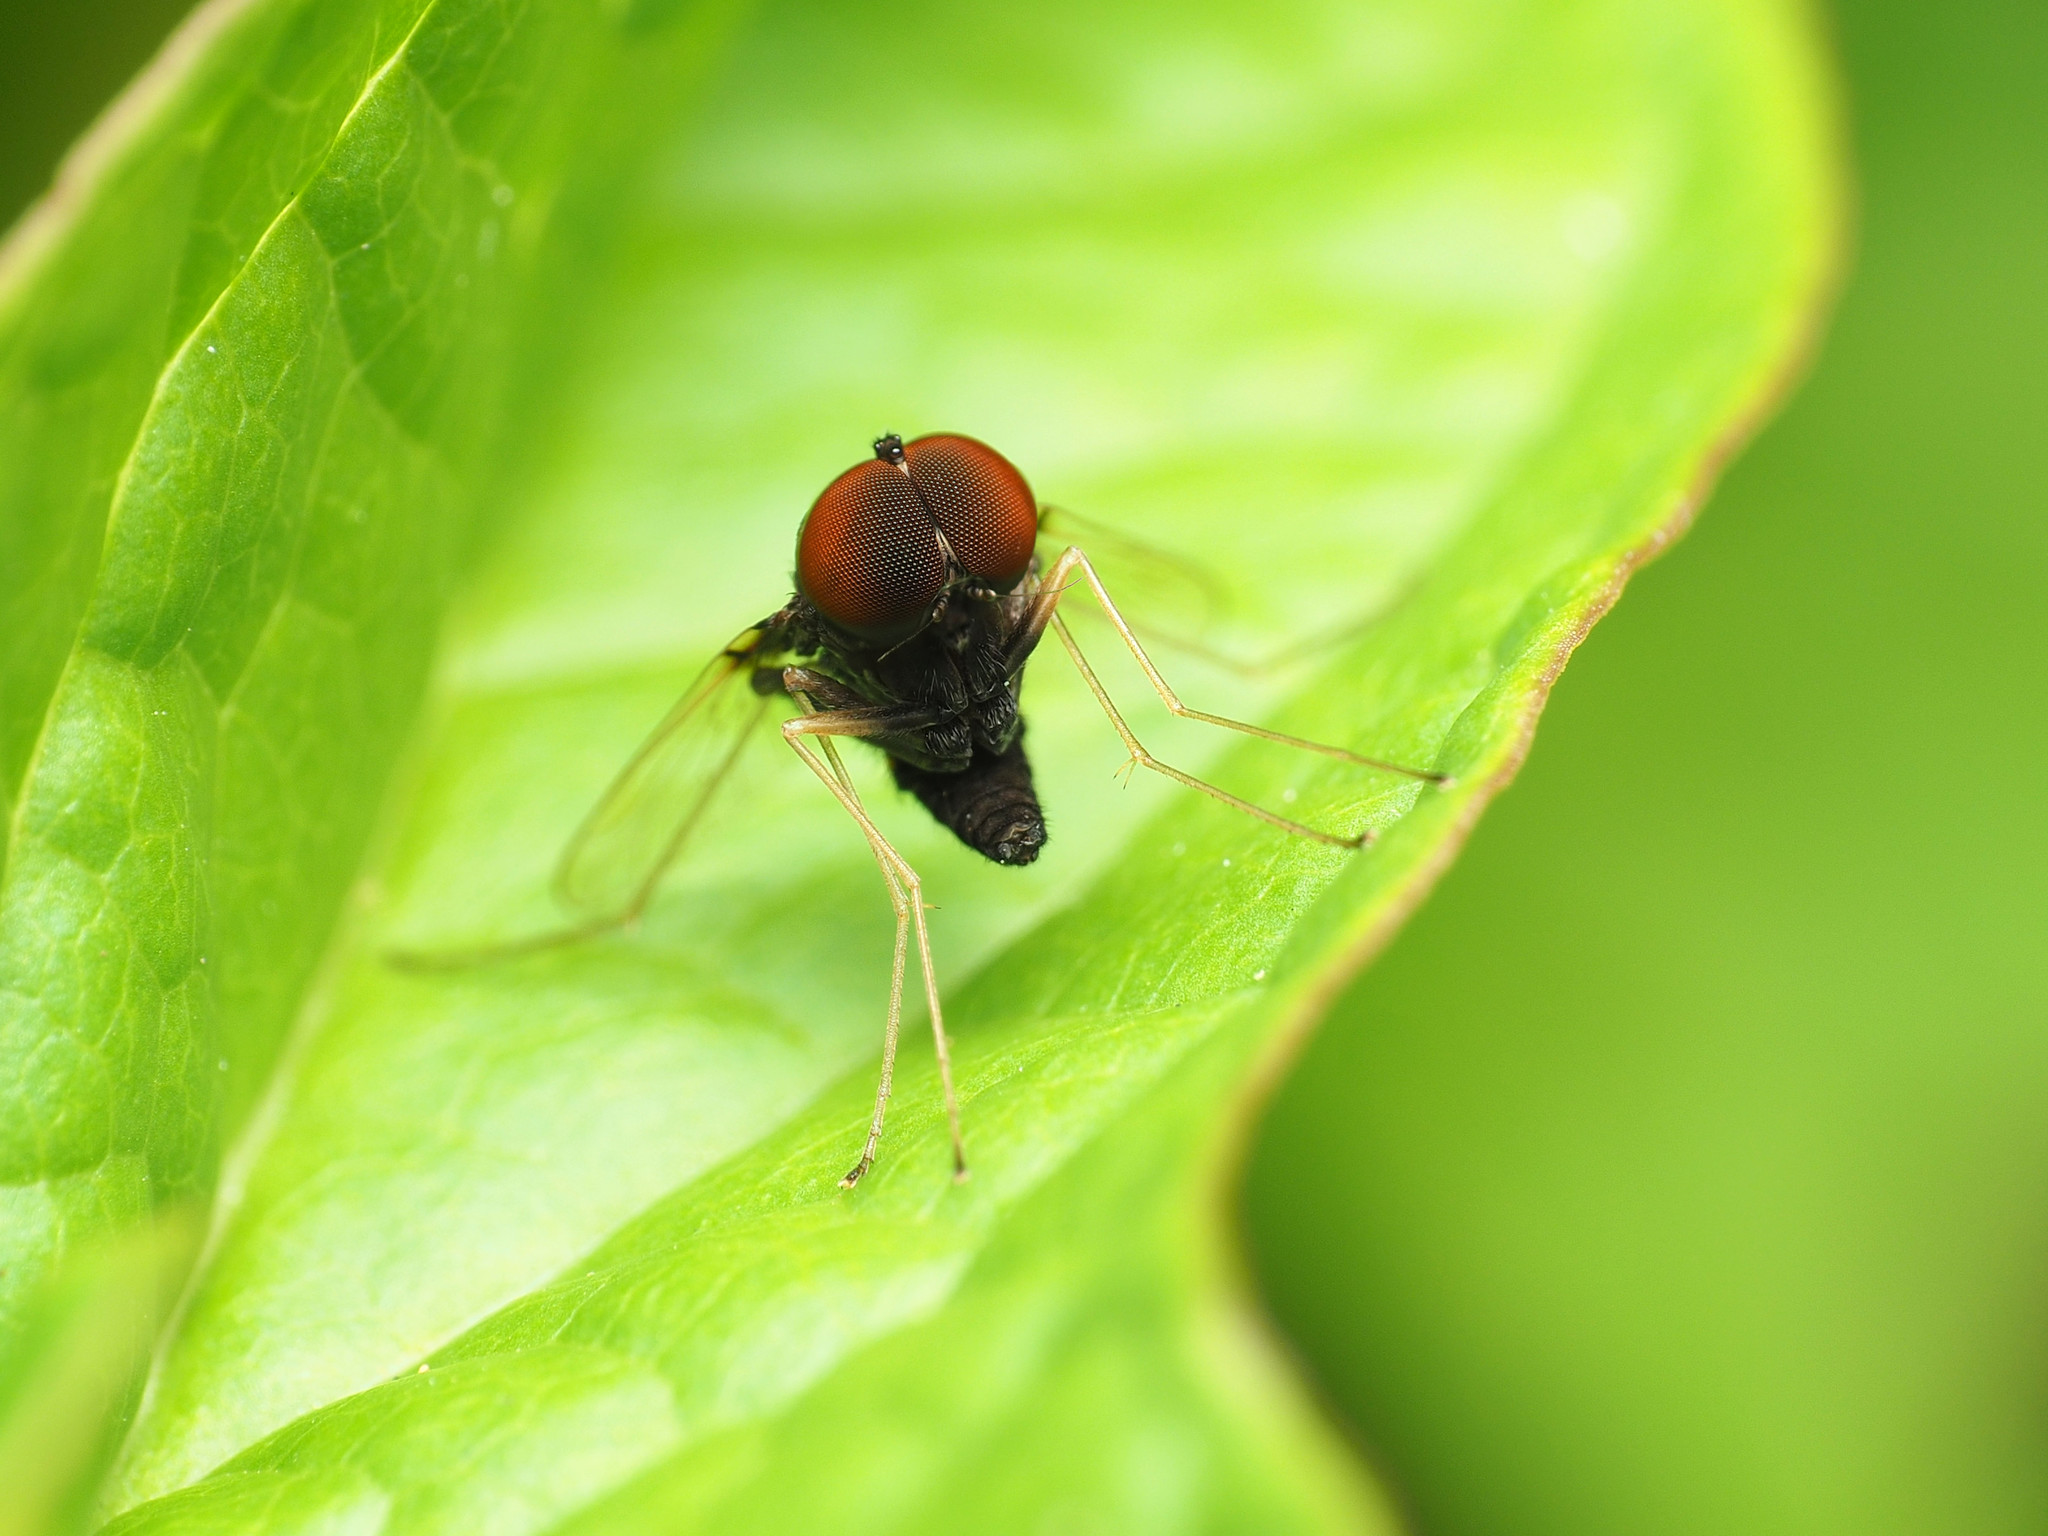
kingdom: Animalia
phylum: Arthropoda
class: Insecta
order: Diptera
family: Rhagionidae
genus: Chrysopilus
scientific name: Chrysopilus basilaris
